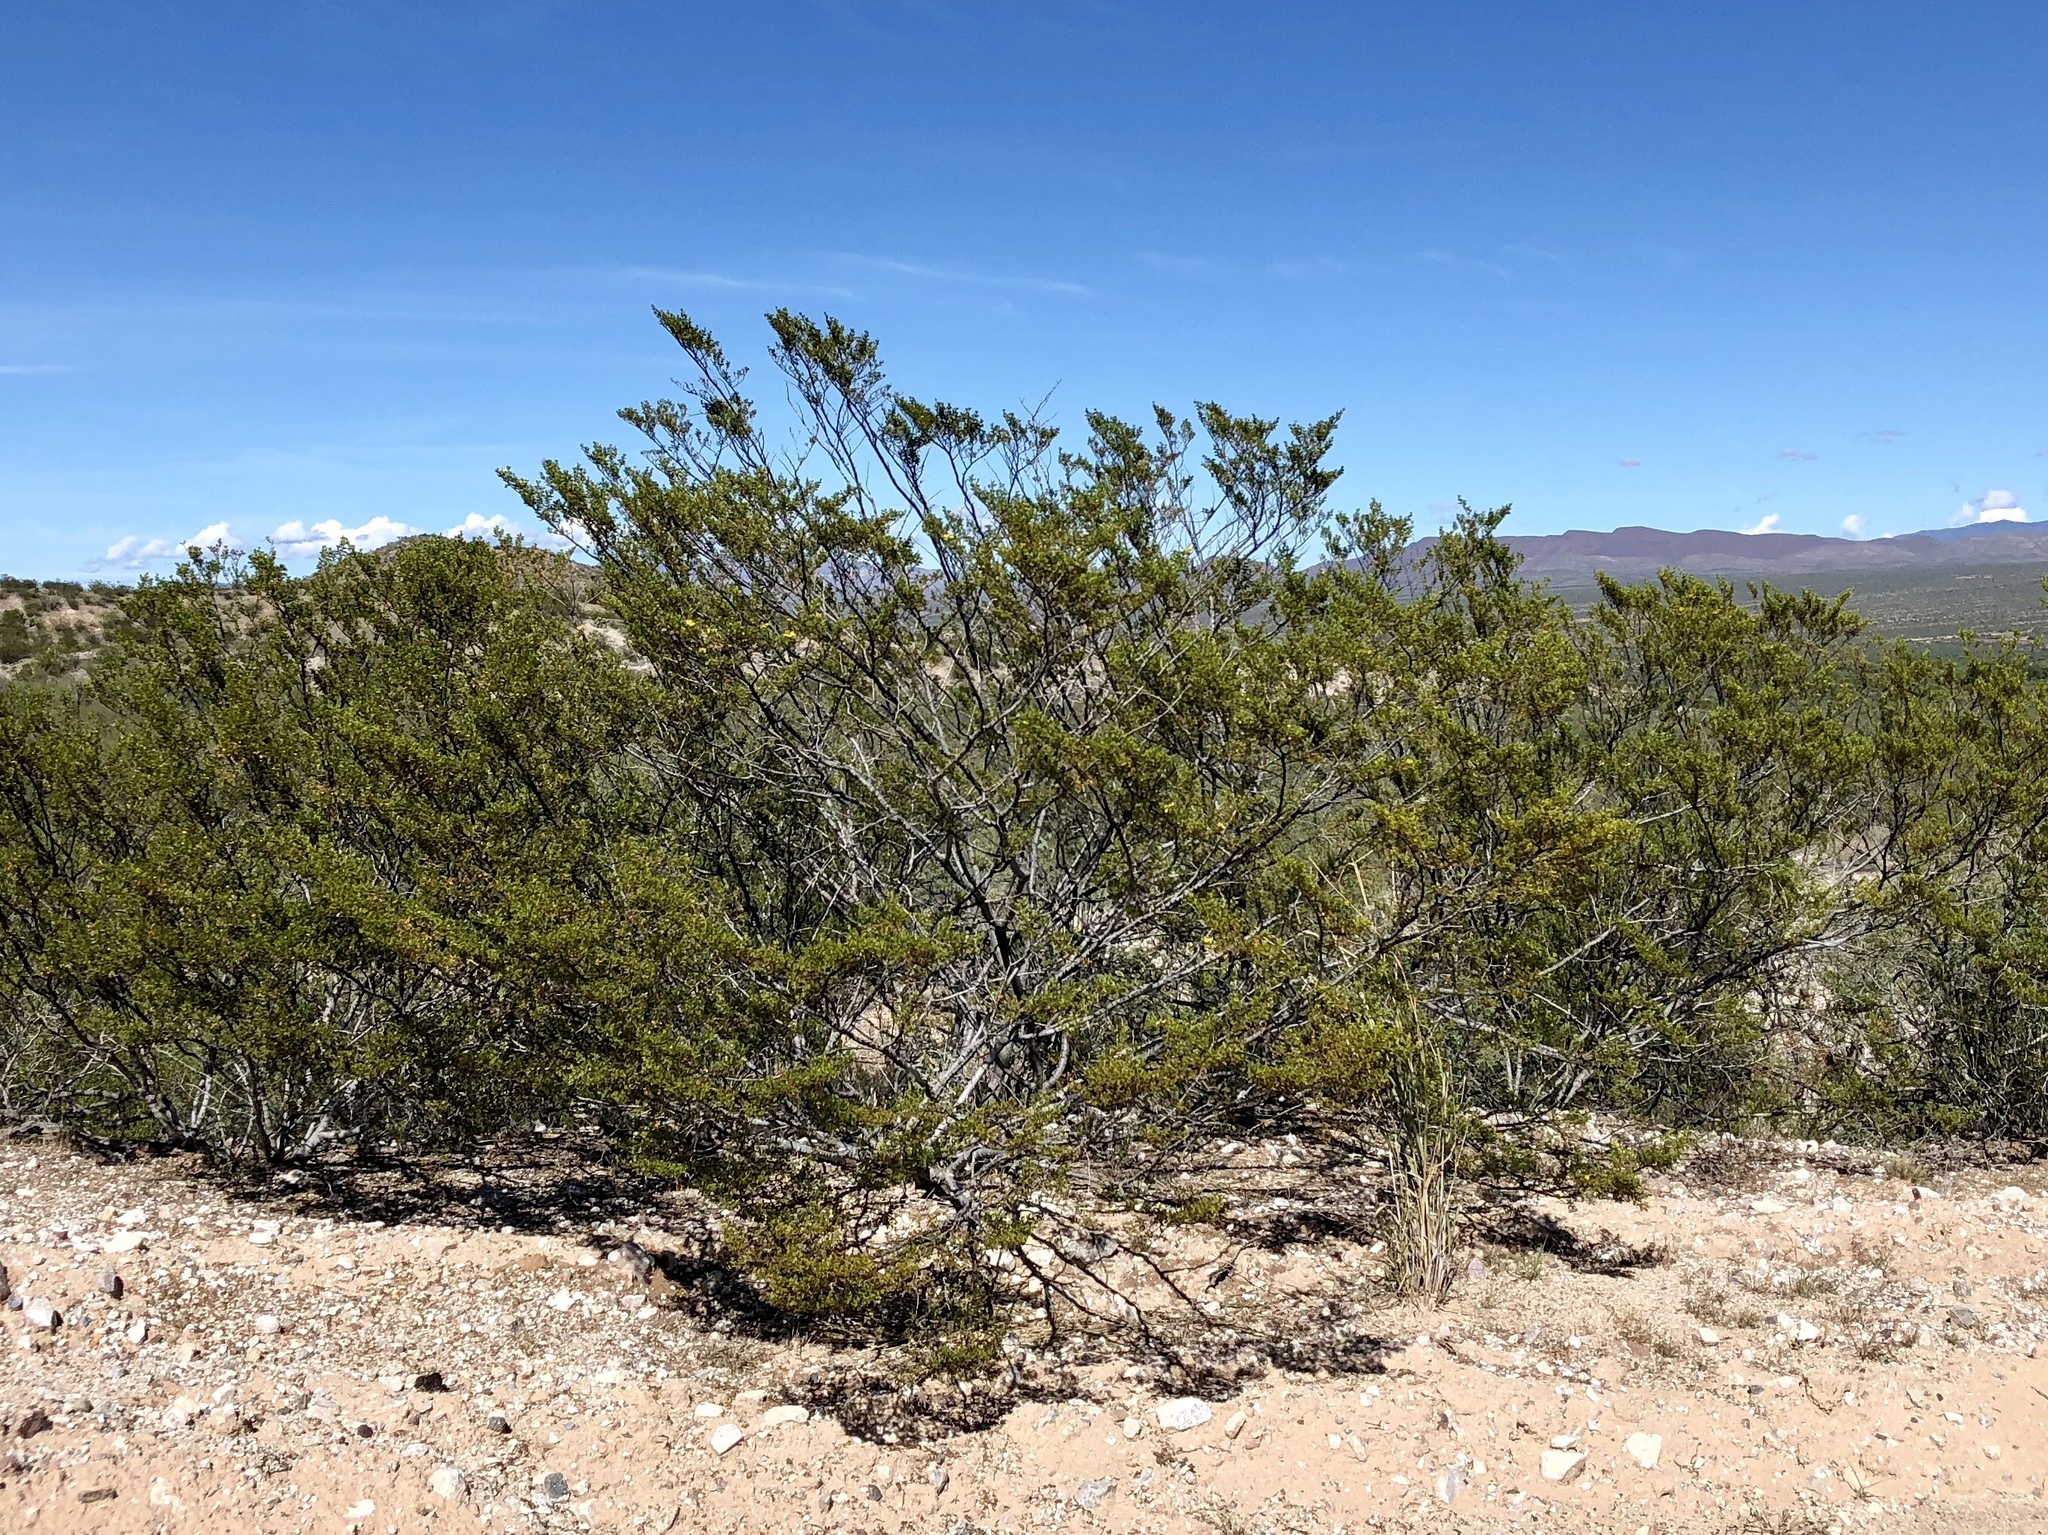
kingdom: Plantae
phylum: Tracheophyta
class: Magnoliopsida
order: Zygophyllales
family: Zygophyllaceae
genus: Larrea
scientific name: Larrea tridentata
